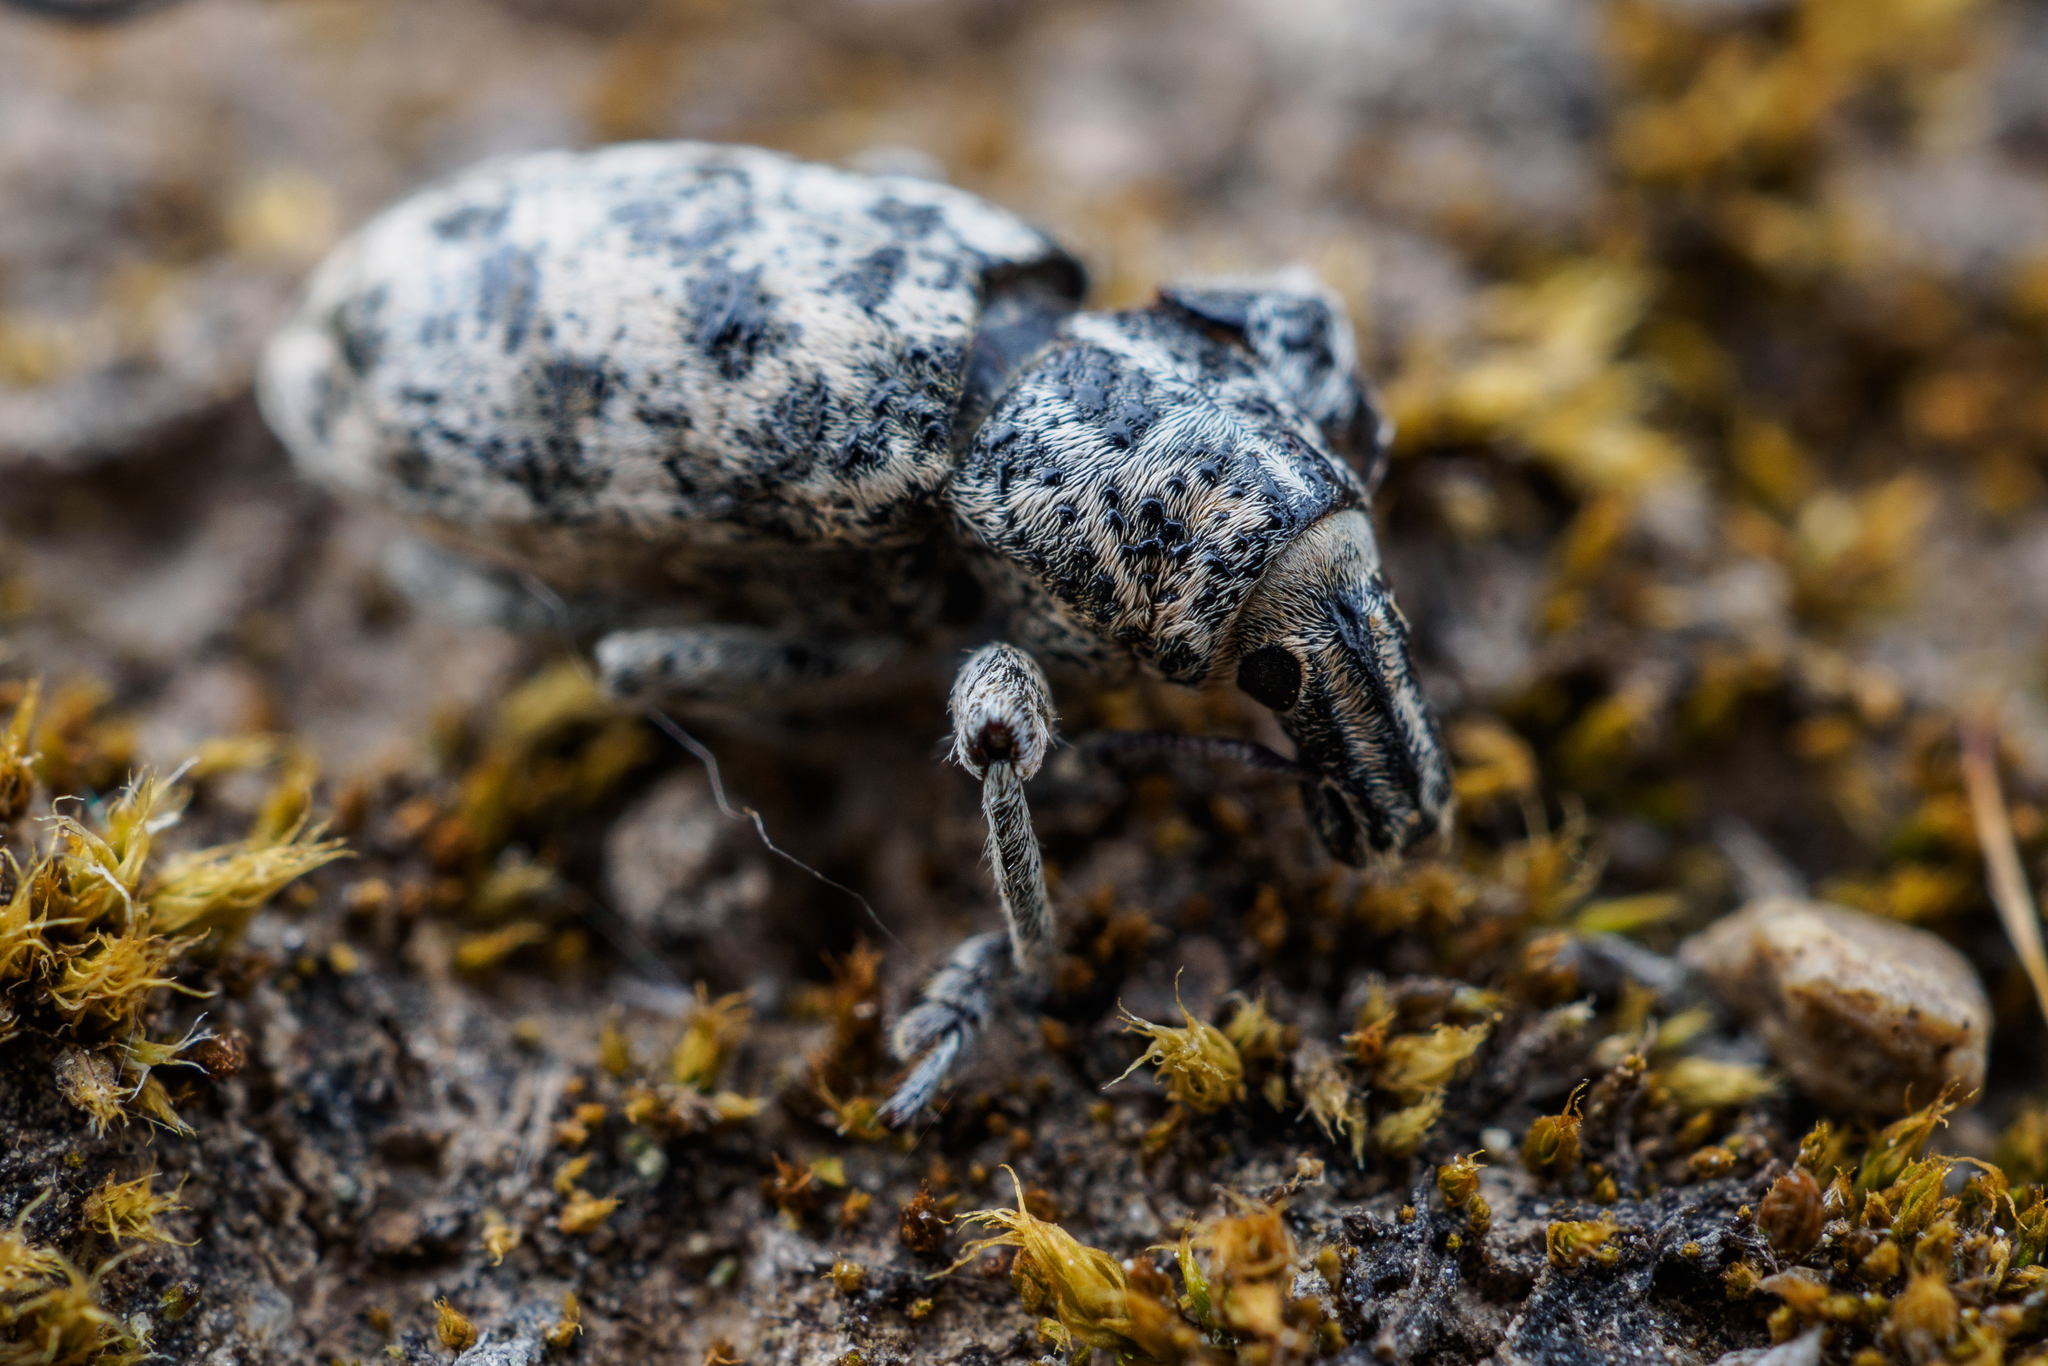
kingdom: Animalia
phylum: Arthropoda
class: Insecta
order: Coleoptera
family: Curculionidae
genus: Cyphocleonus
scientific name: Cyphocleonus dealbatus
